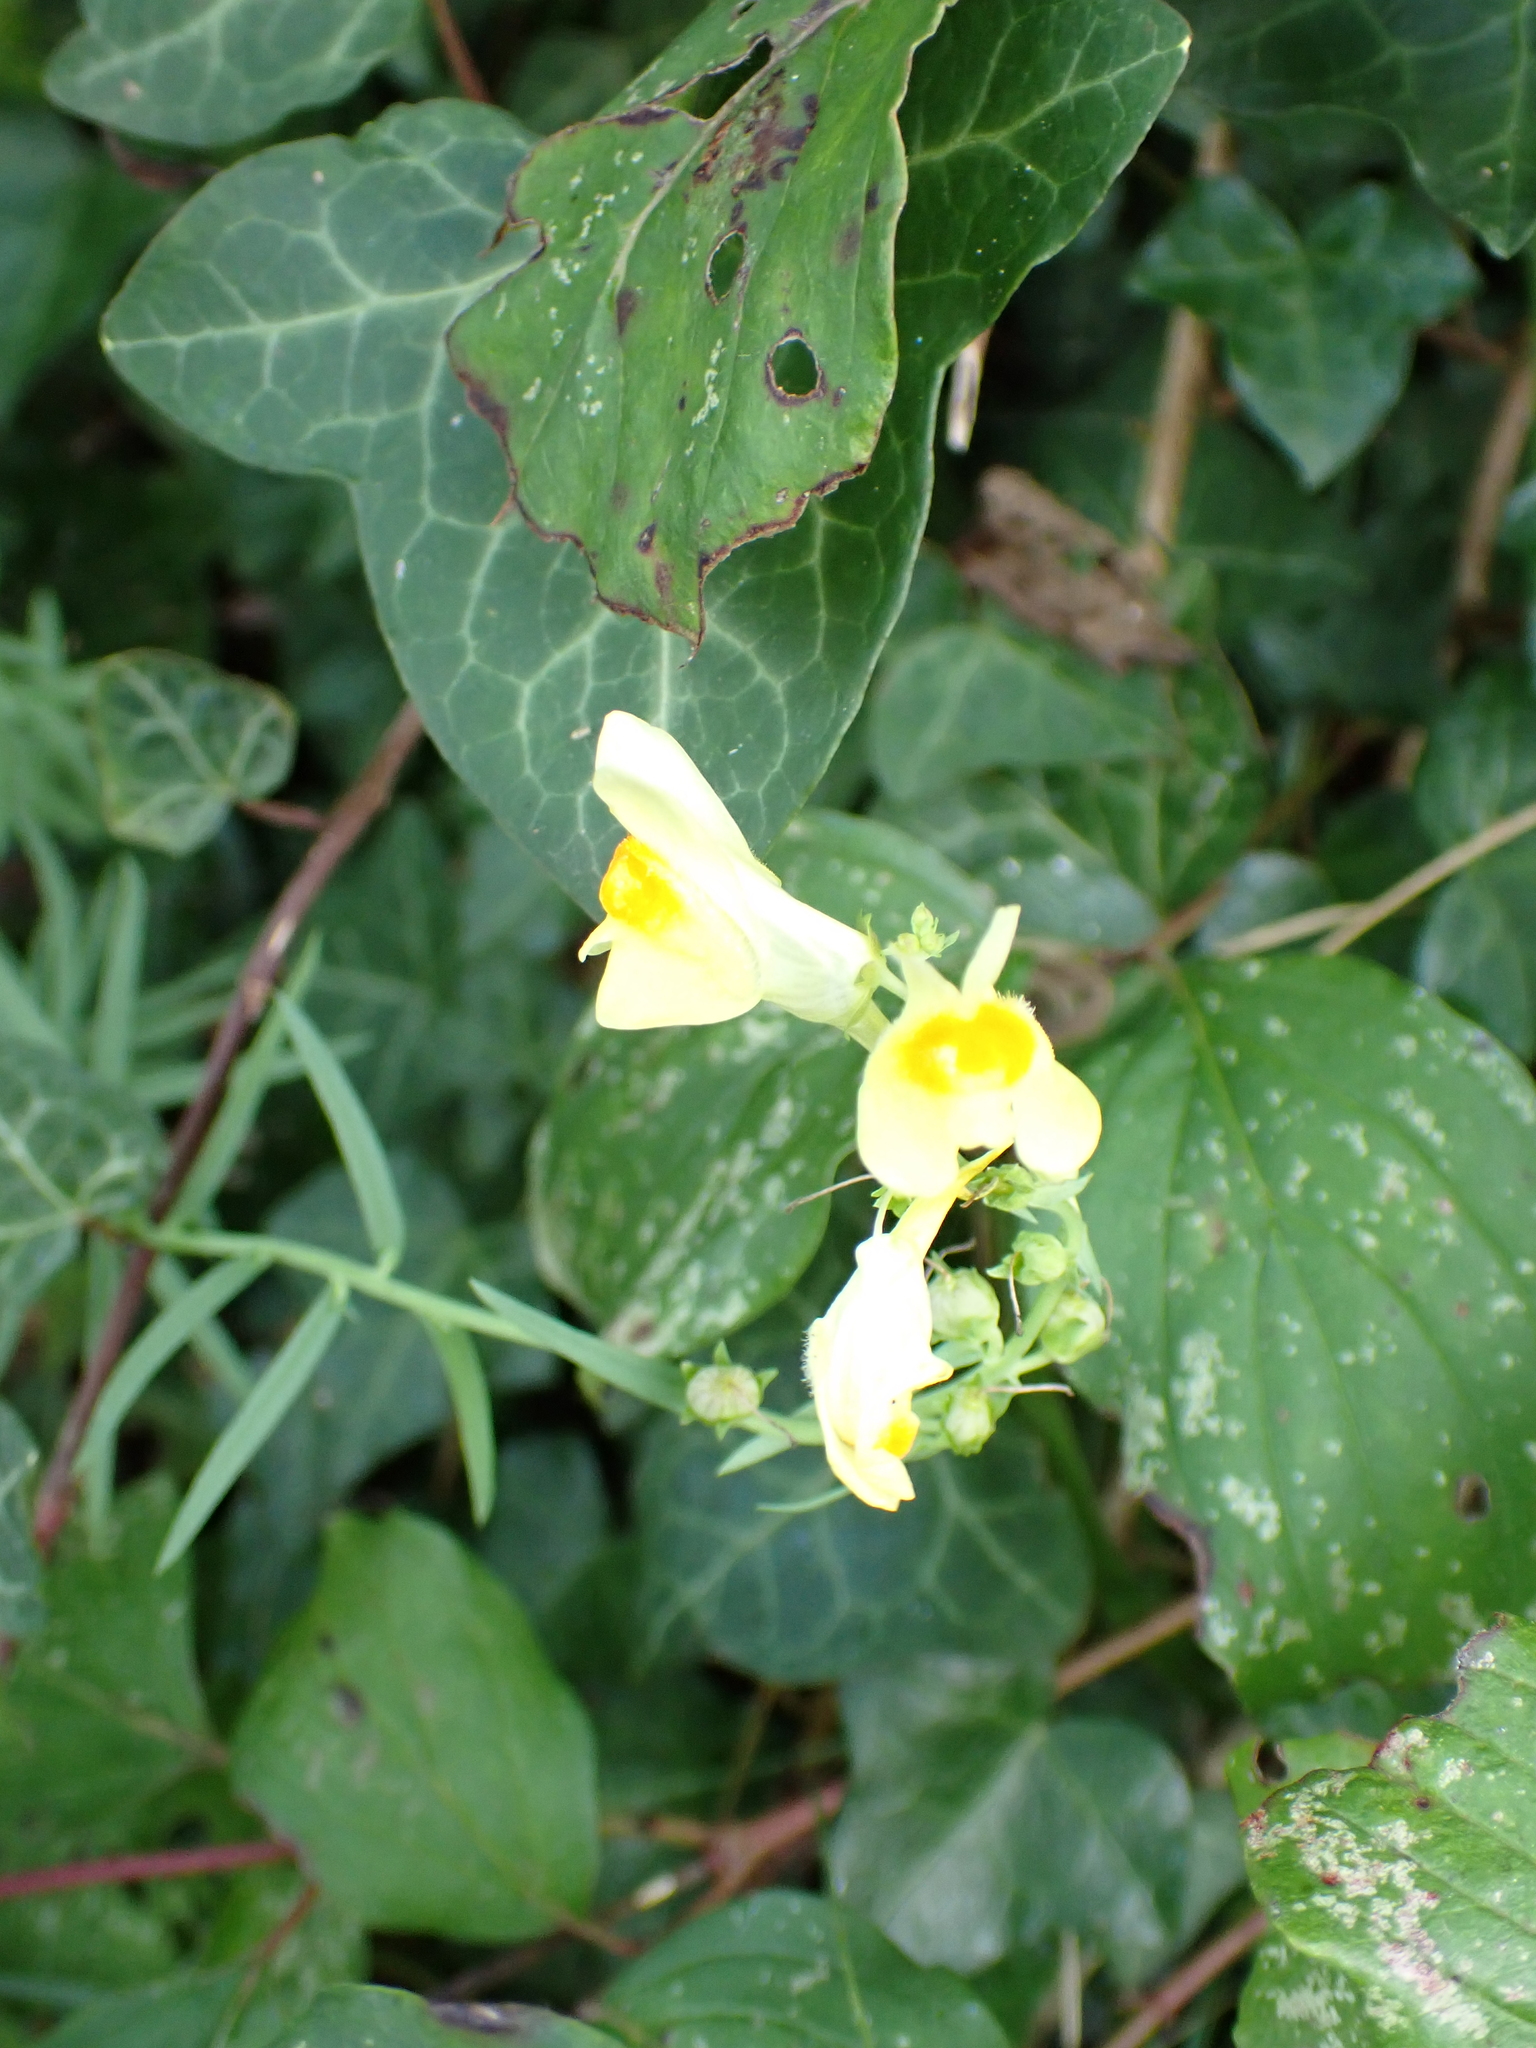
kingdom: Plantae
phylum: Tracheophyta
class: Magnoliopsida
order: Lamiales
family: Plantaginaceae
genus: Linaria
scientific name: Linaria vulgaris
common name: Butter and eggs
